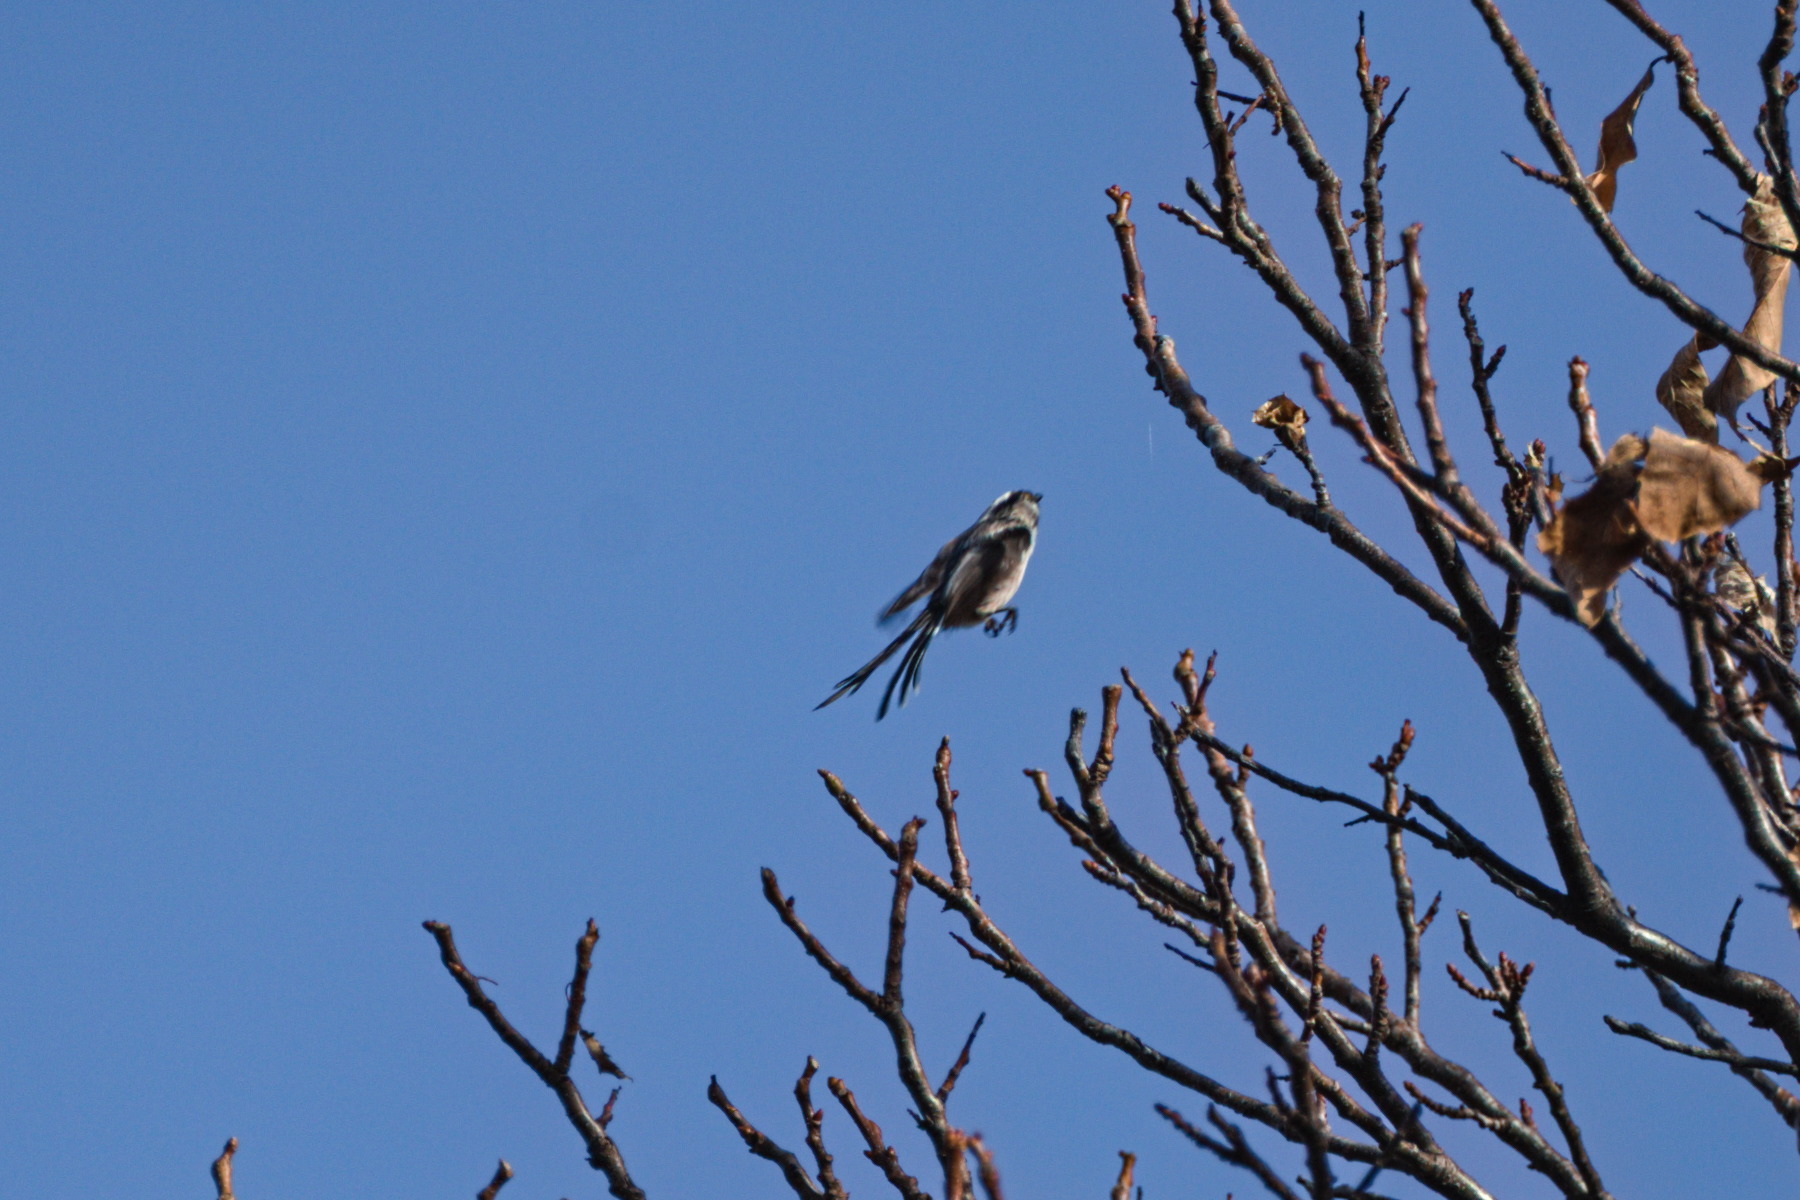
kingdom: Animalia
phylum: Chordata
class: Aves
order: Passeriformes
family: Aegithalidae
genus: Aegithalos
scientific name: Aegithalos caudatus
